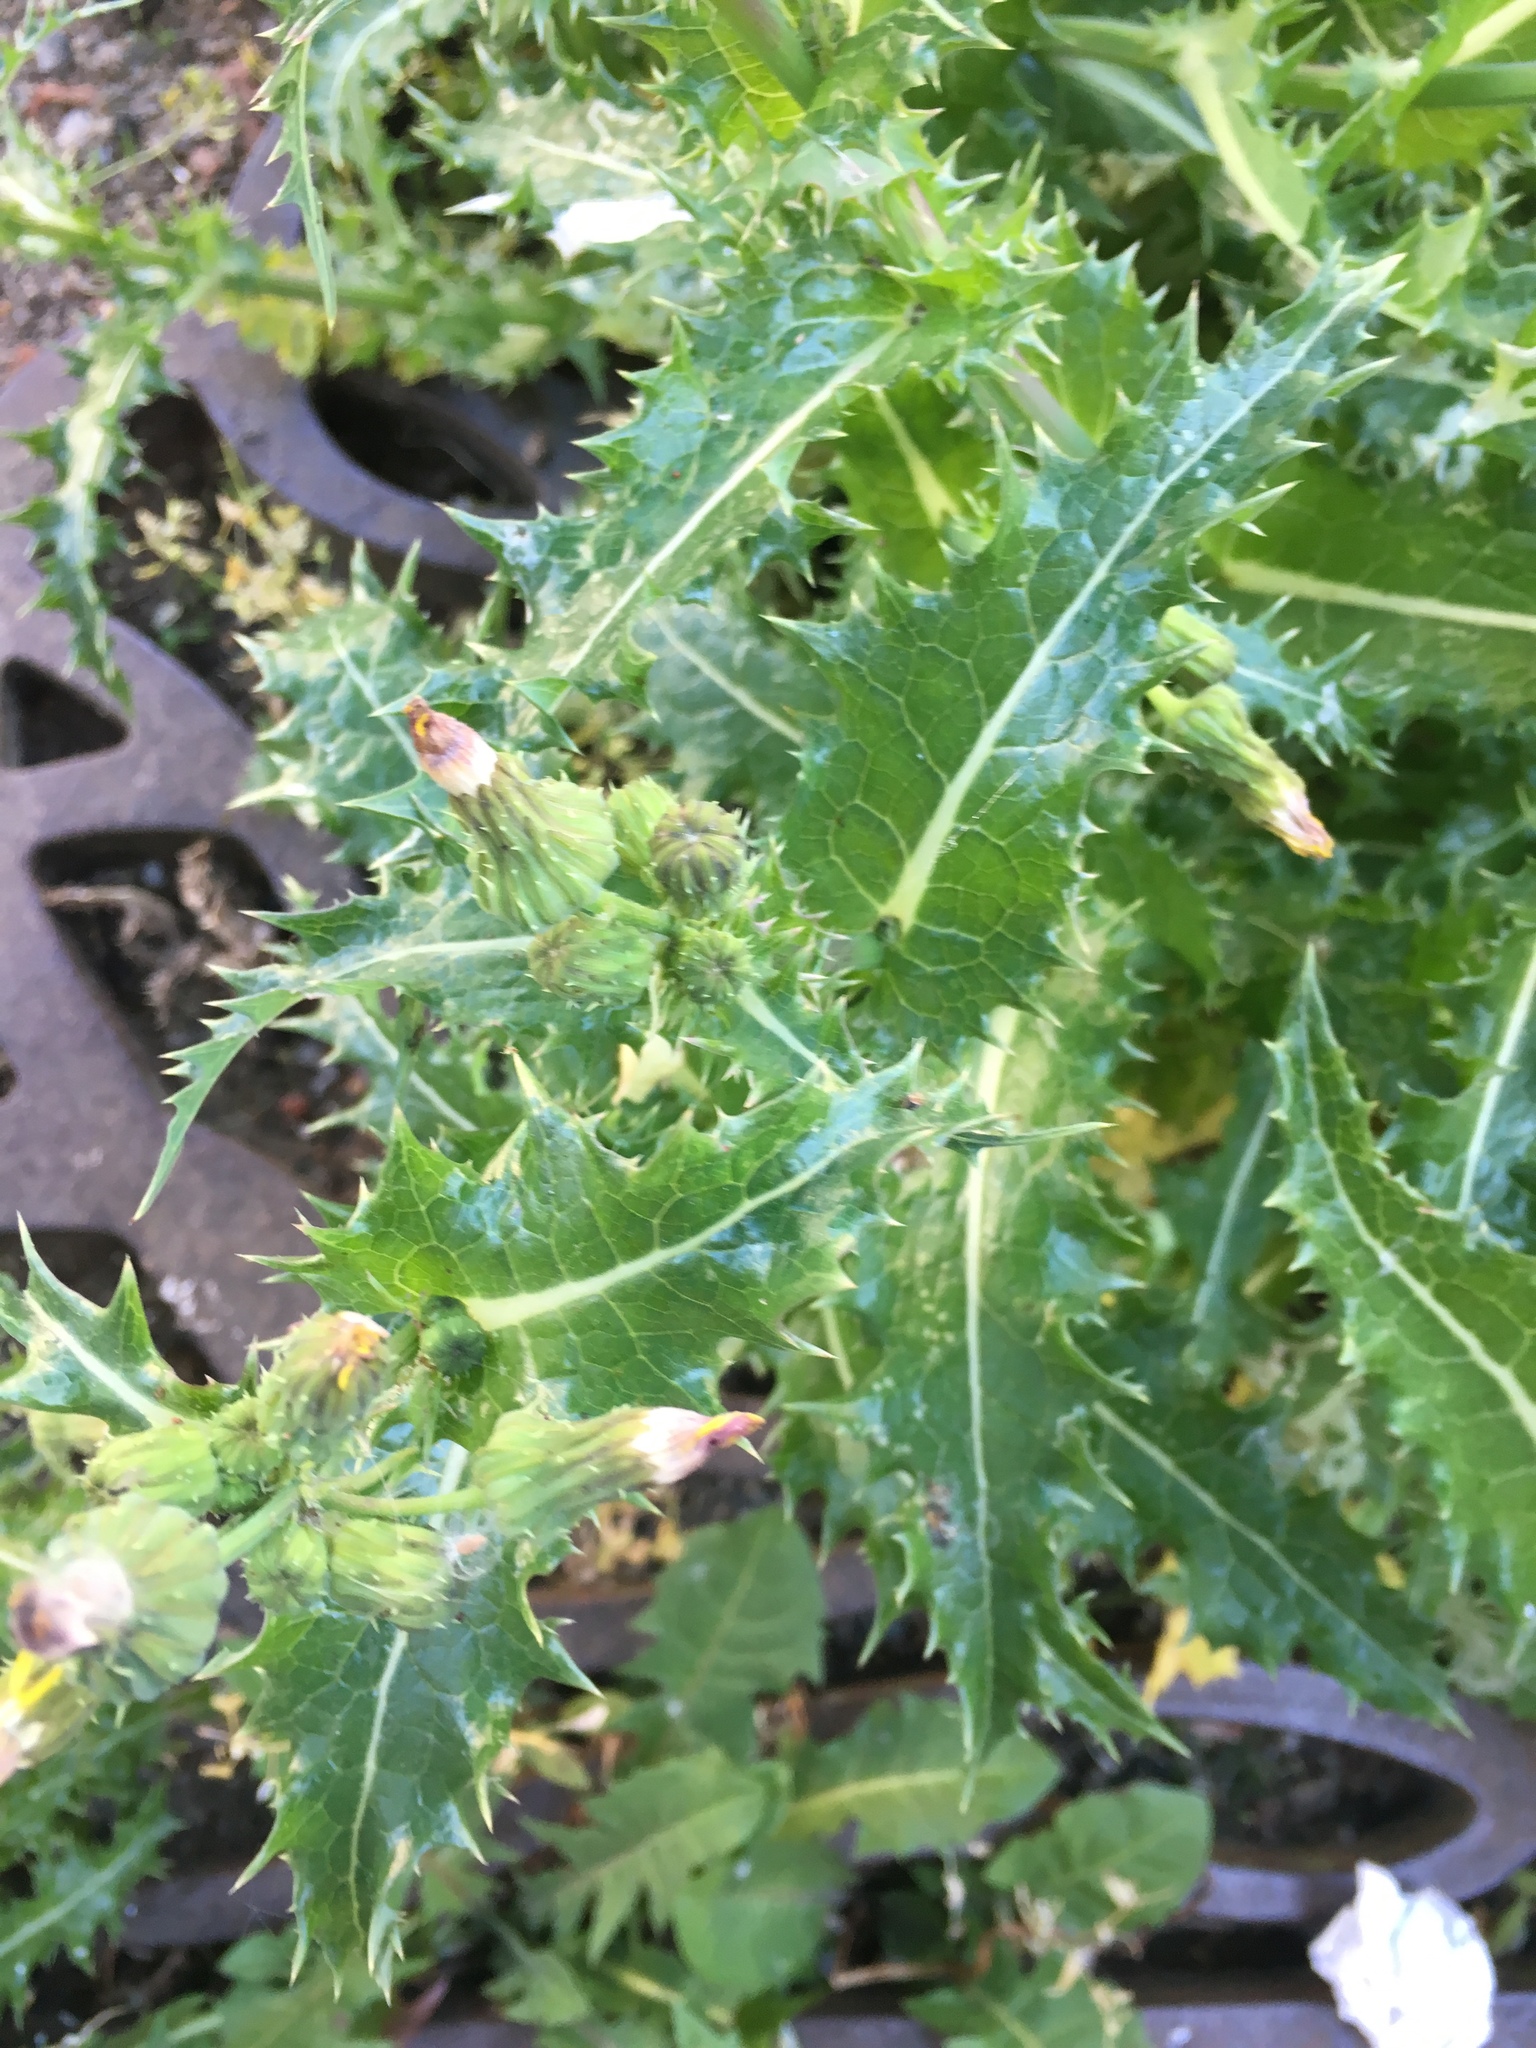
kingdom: Plantae
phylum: Tracheophyta
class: Magnoliopsida
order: Asterales
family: Asteraceae
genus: Sonchus
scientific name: Sonchus asper
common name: Prickly sow-thistle
